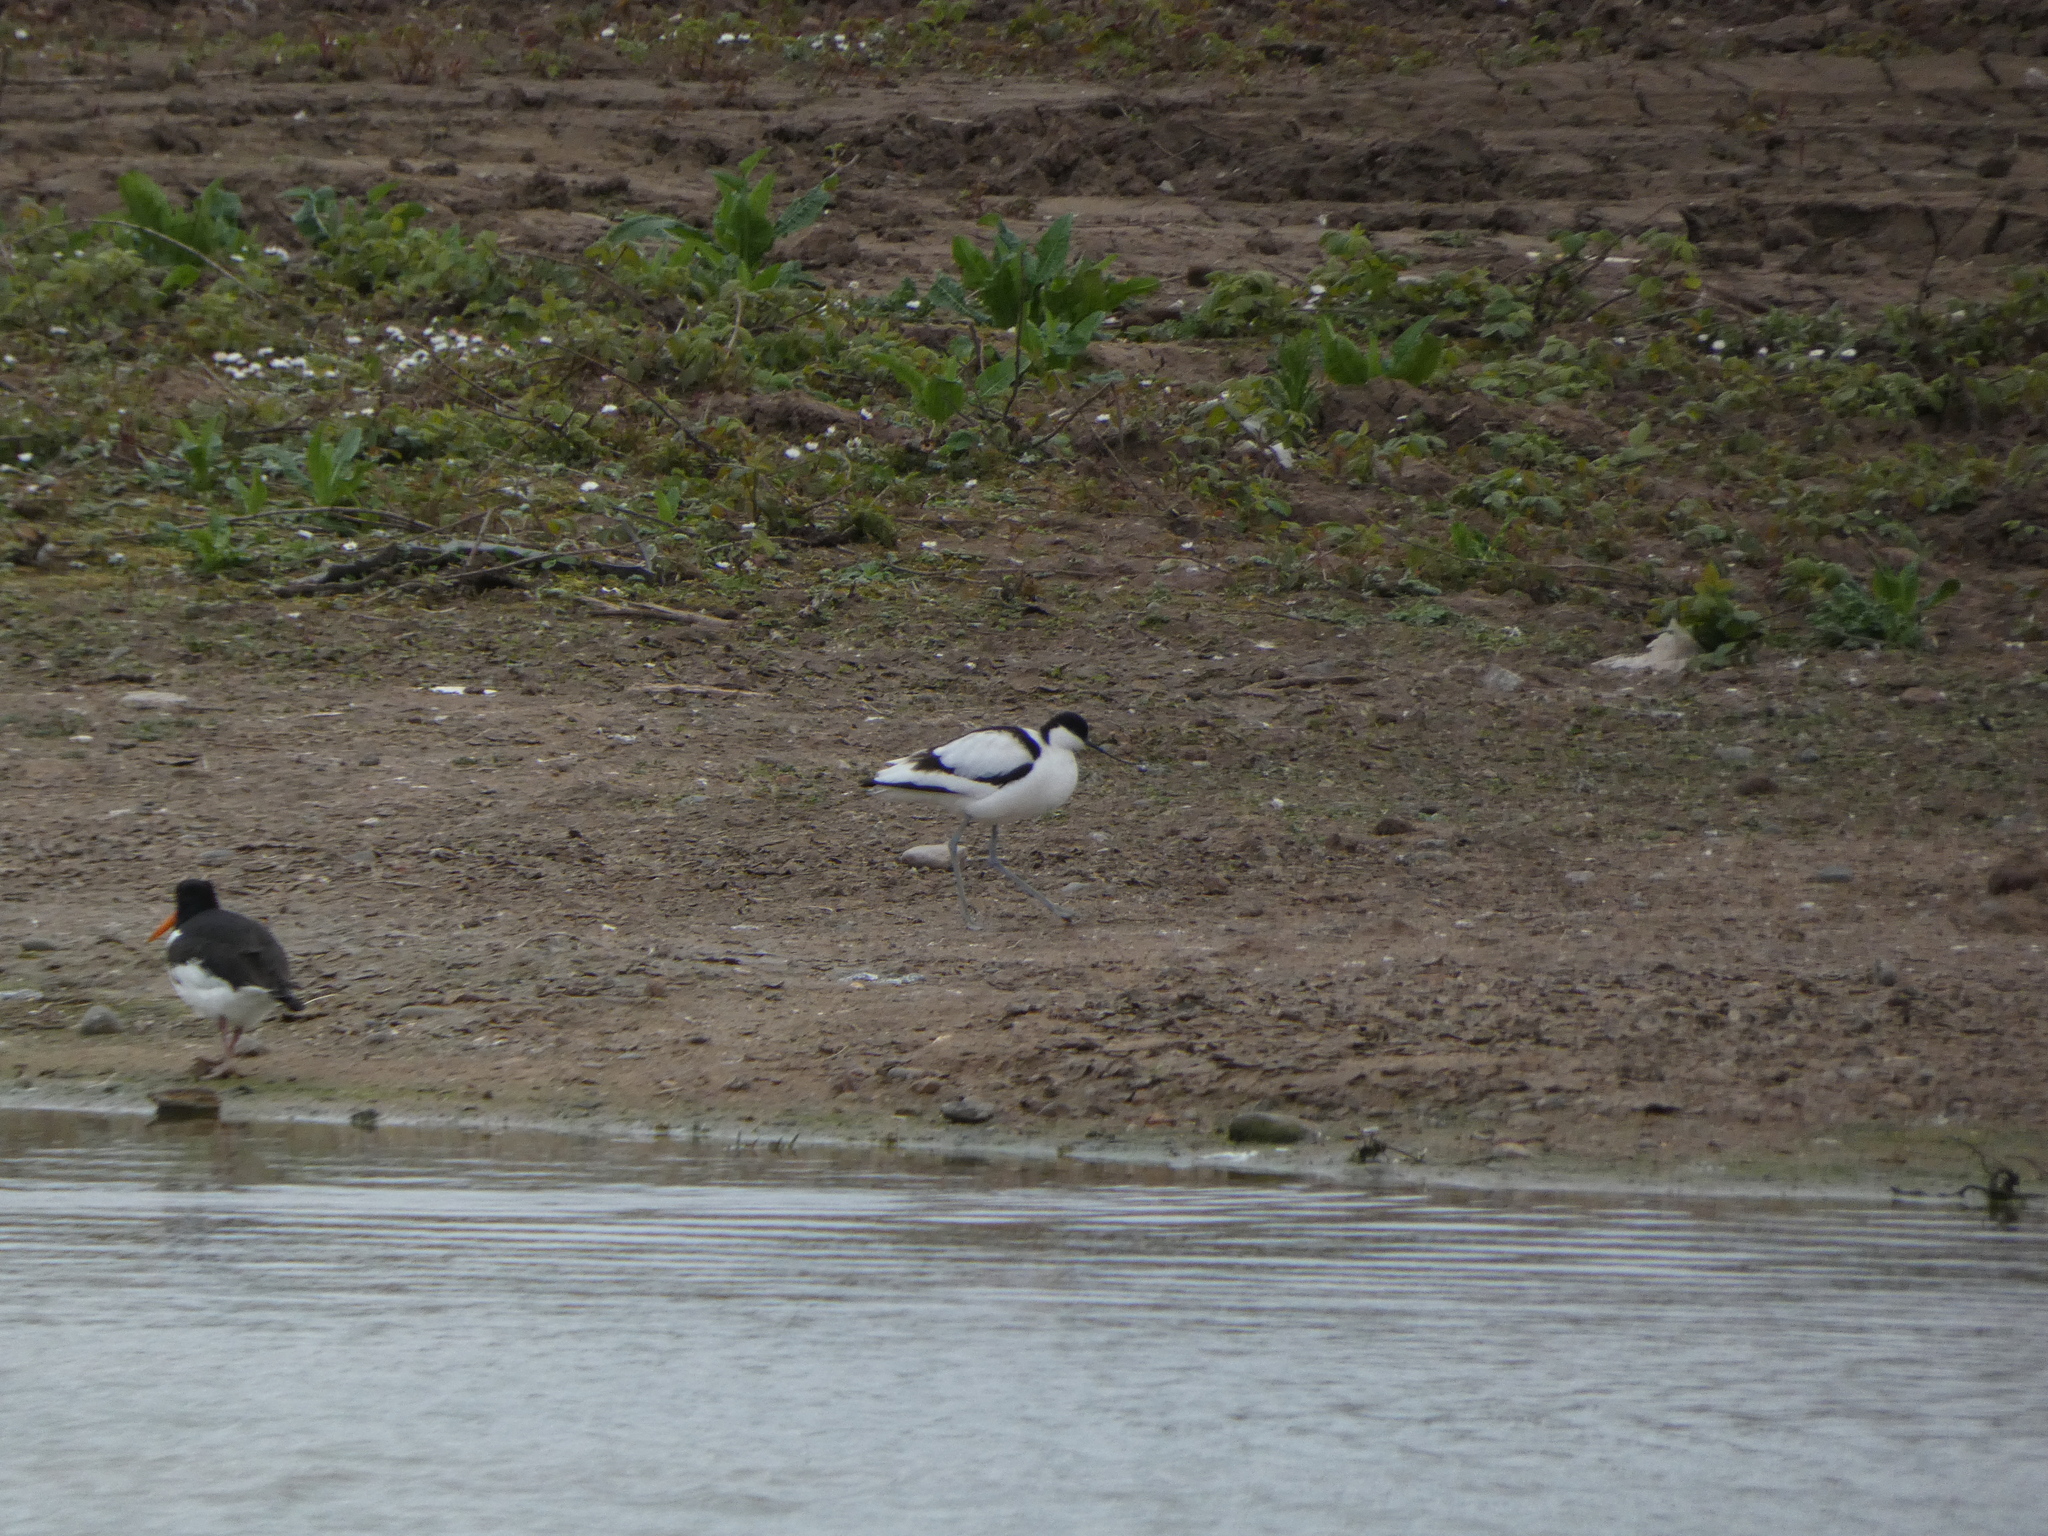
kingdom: Animalia
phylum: Chordata
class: Aves
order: Charadriiformes
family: Recurvirostridae
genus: Recurvirostra
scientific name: Recurvirostra avosetta
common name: Pied avocet
